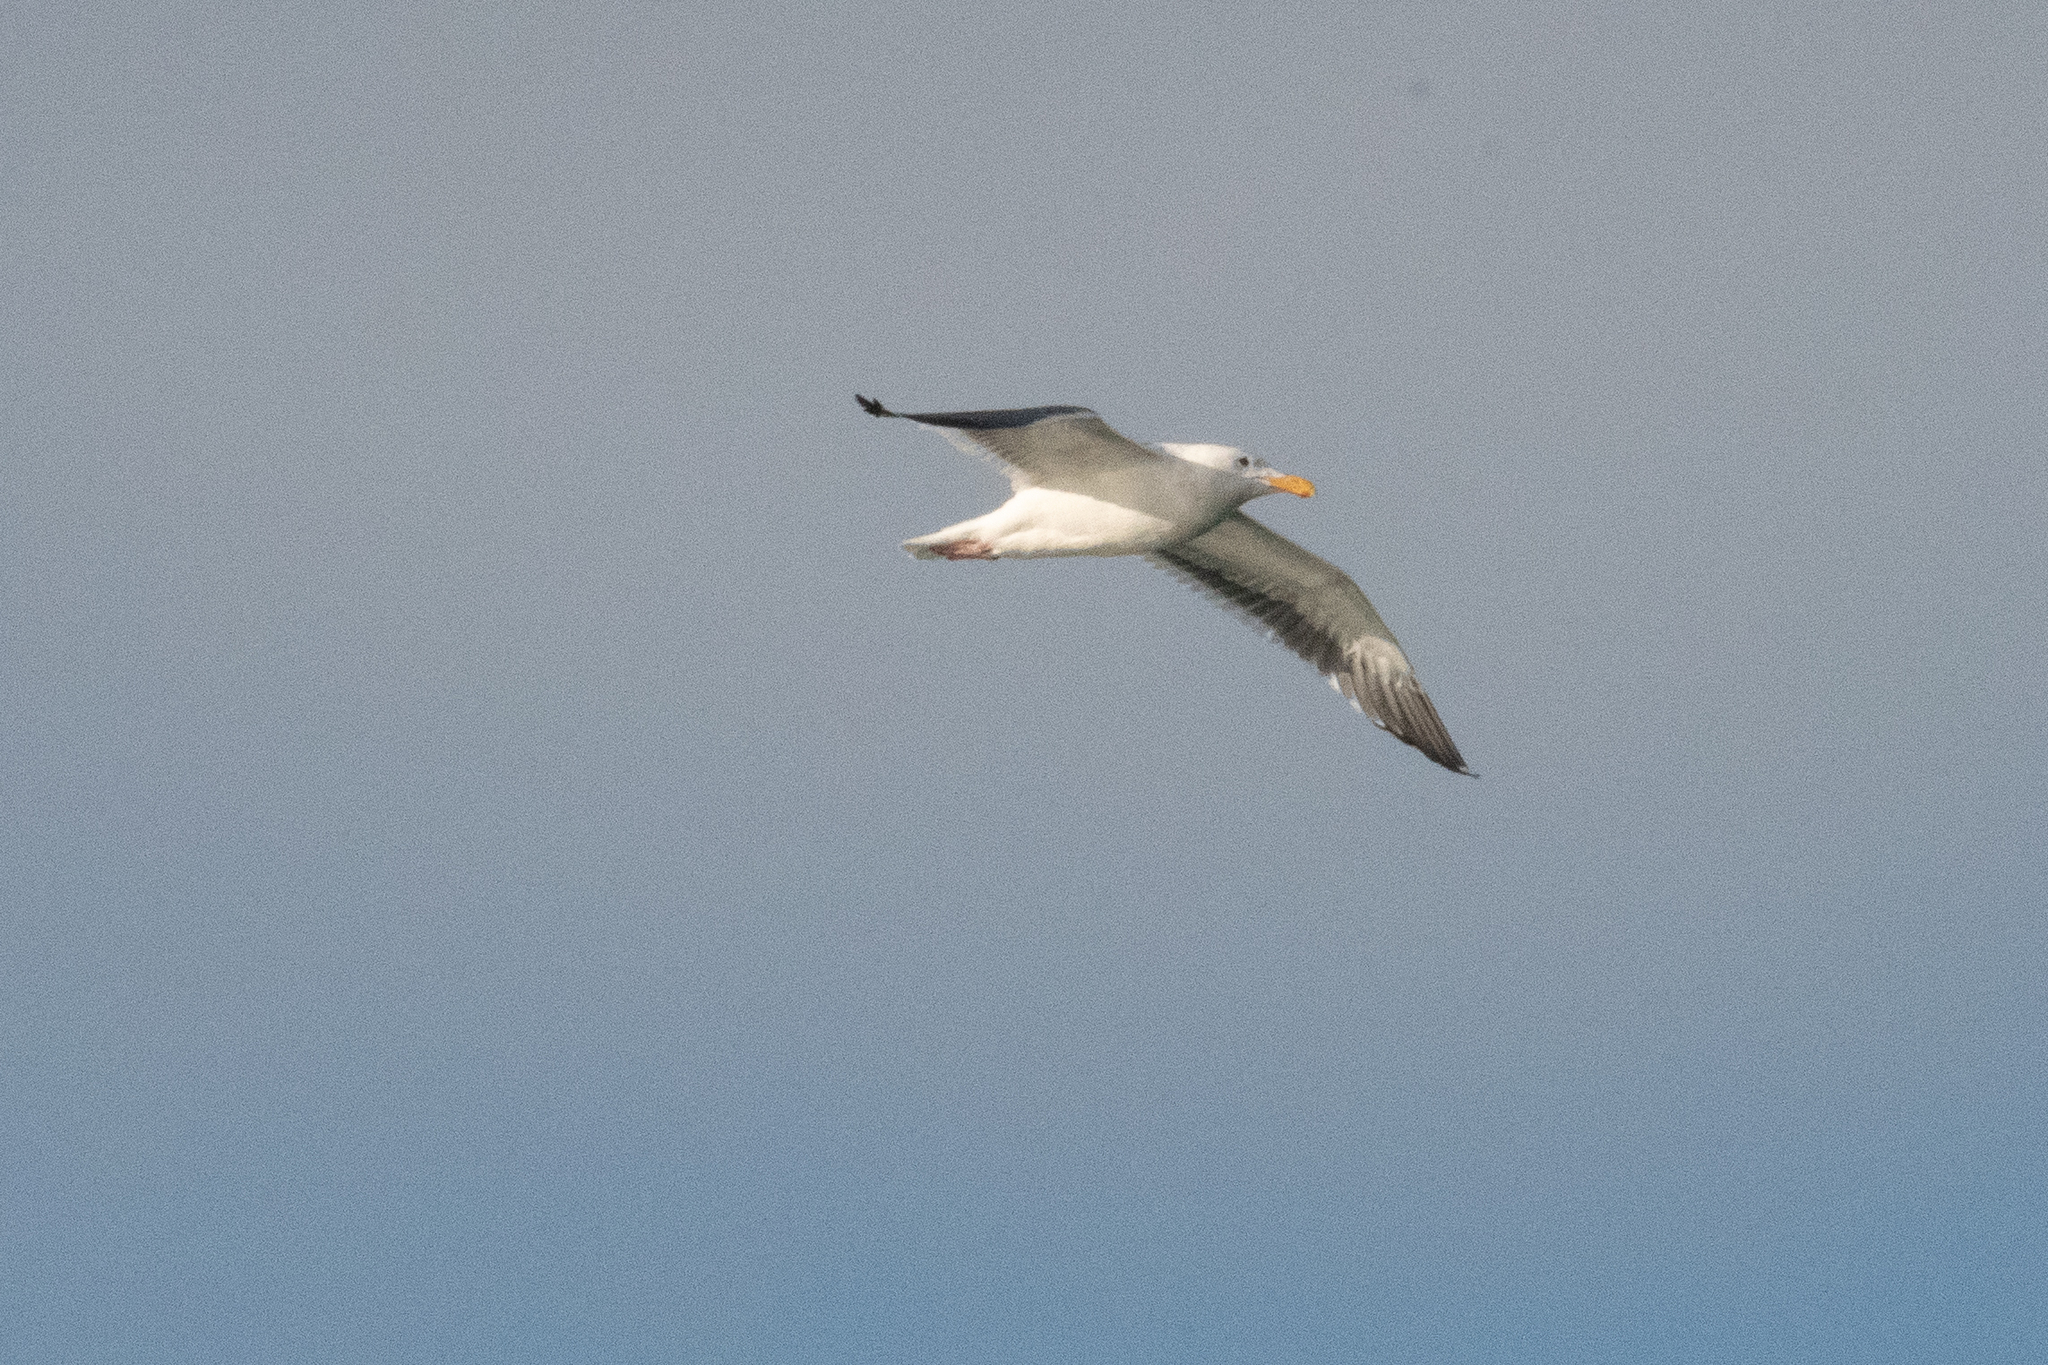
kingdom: Animalia
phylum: Chordata
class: Aves
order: Charadriiformes
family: Laridae
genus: Larus
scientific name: Larus occidentalis
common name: Western gull
